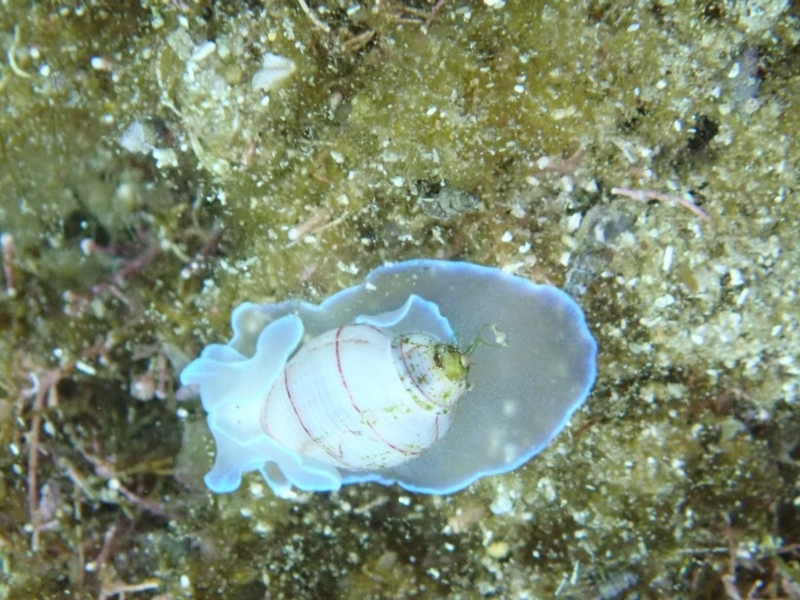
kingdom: Animalia
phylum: Mollusca
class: Gastropoda
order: Cephalaspidea
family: Aplustridae
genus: Bullina
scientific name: Bullina lineata
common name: Lined bubble snail
